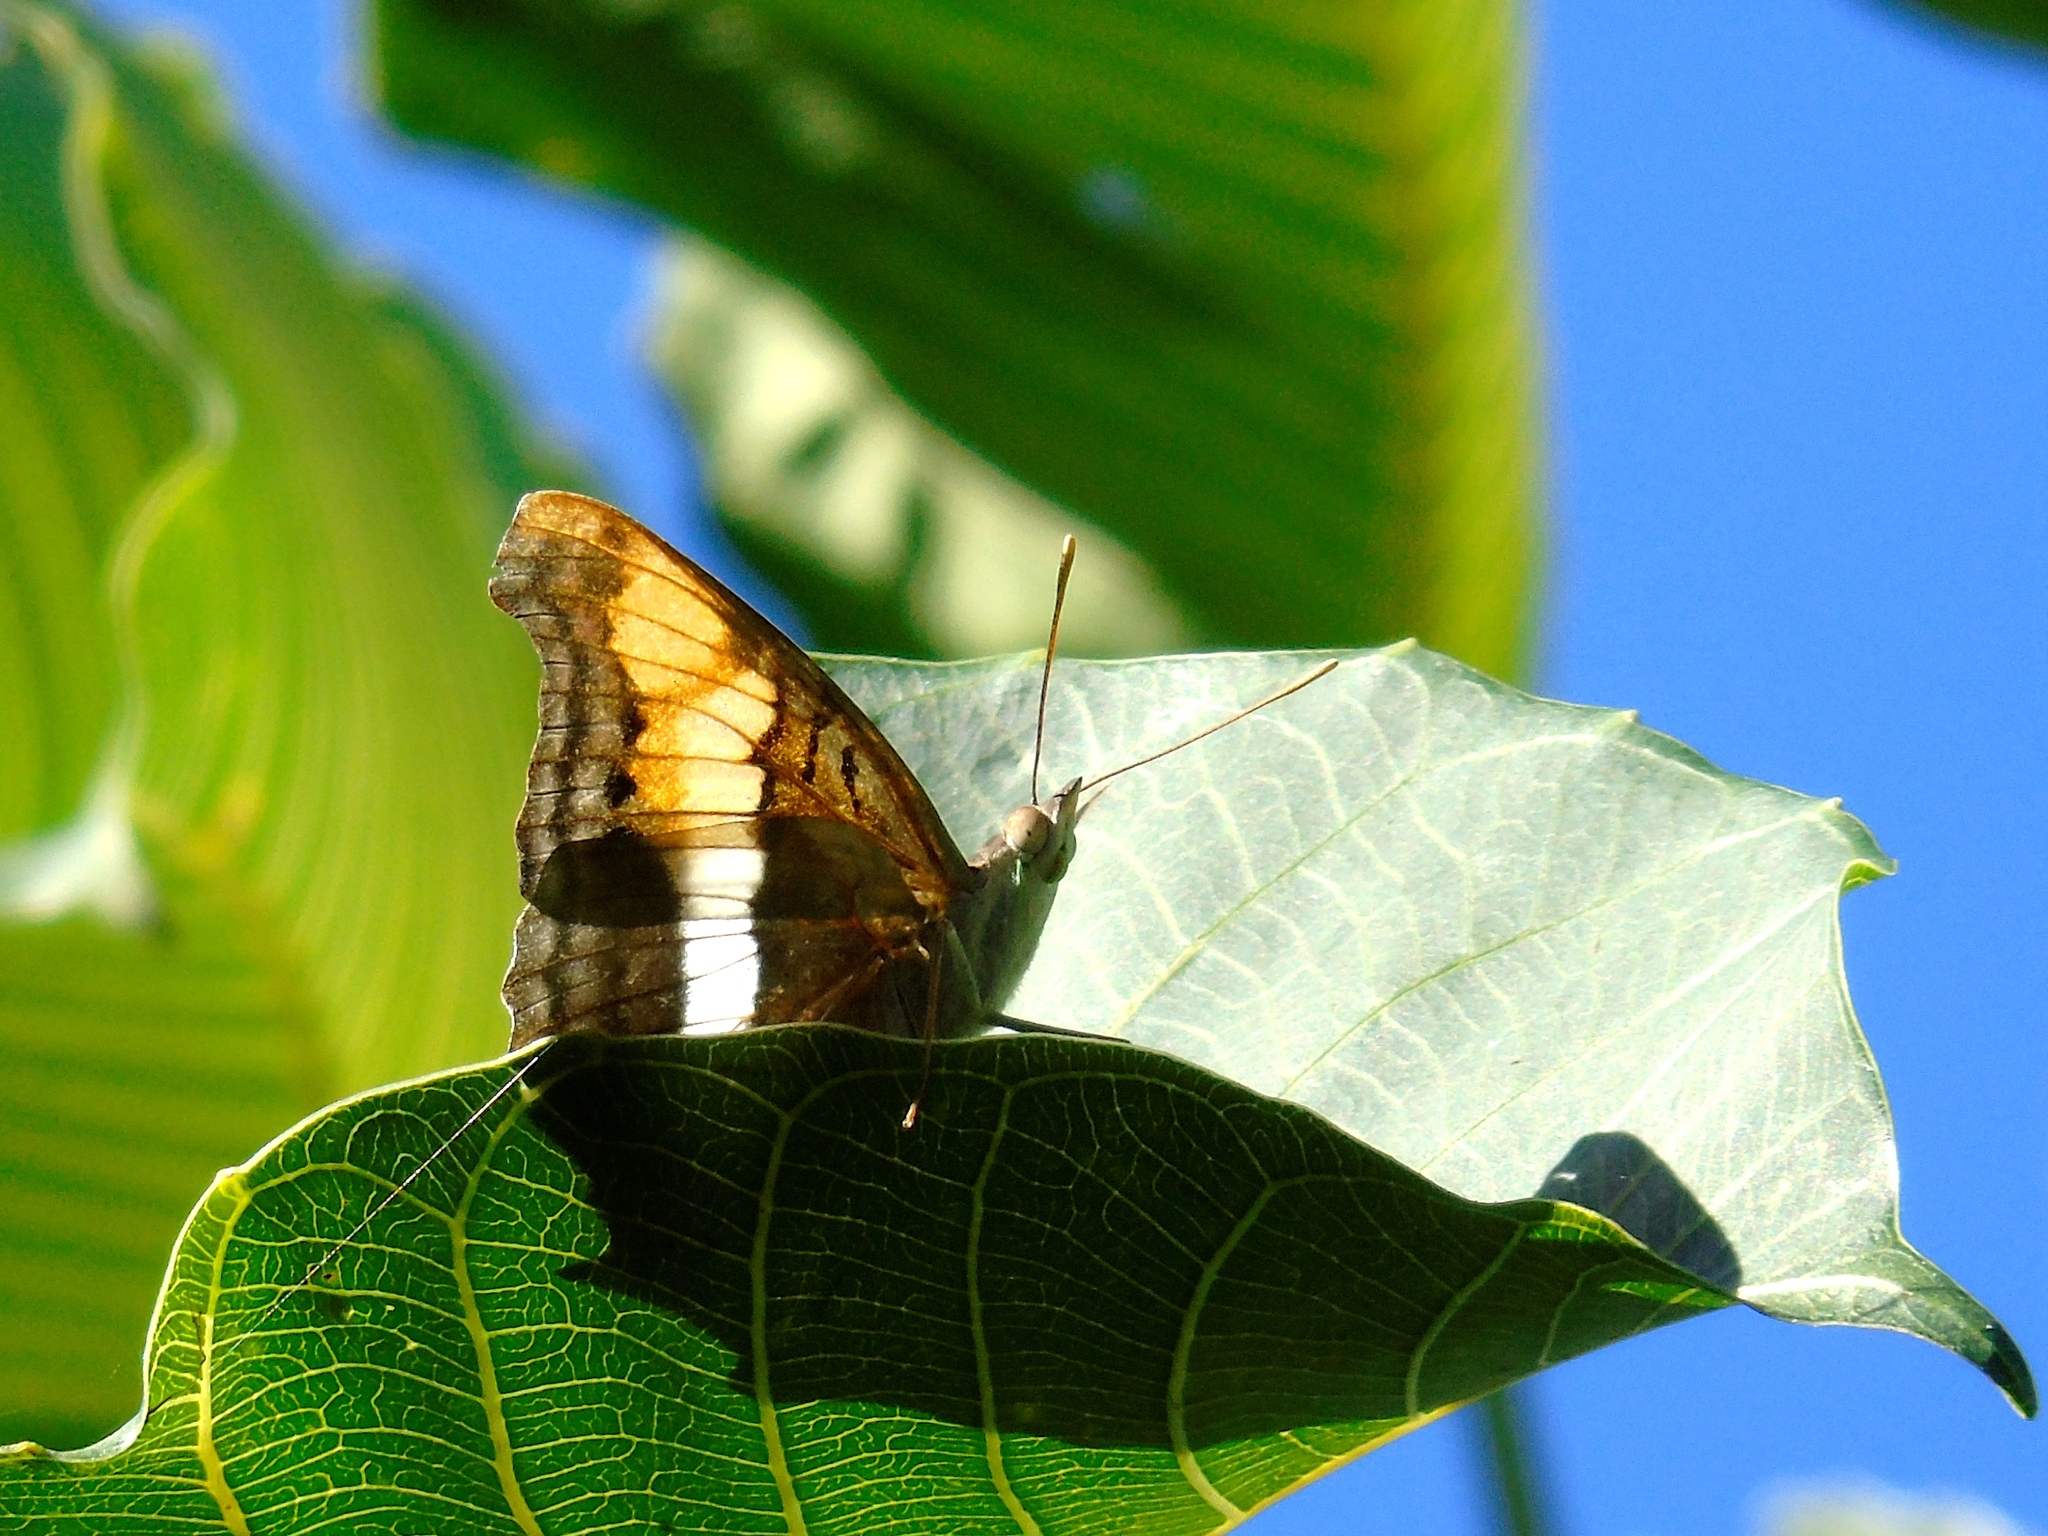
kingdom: Animalia
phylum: Arthropoda
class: Insecta
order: Lepidoptera
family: Nymphalidae
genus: Doxocopa
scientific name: Doxocopa laure
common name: Silver emperor
